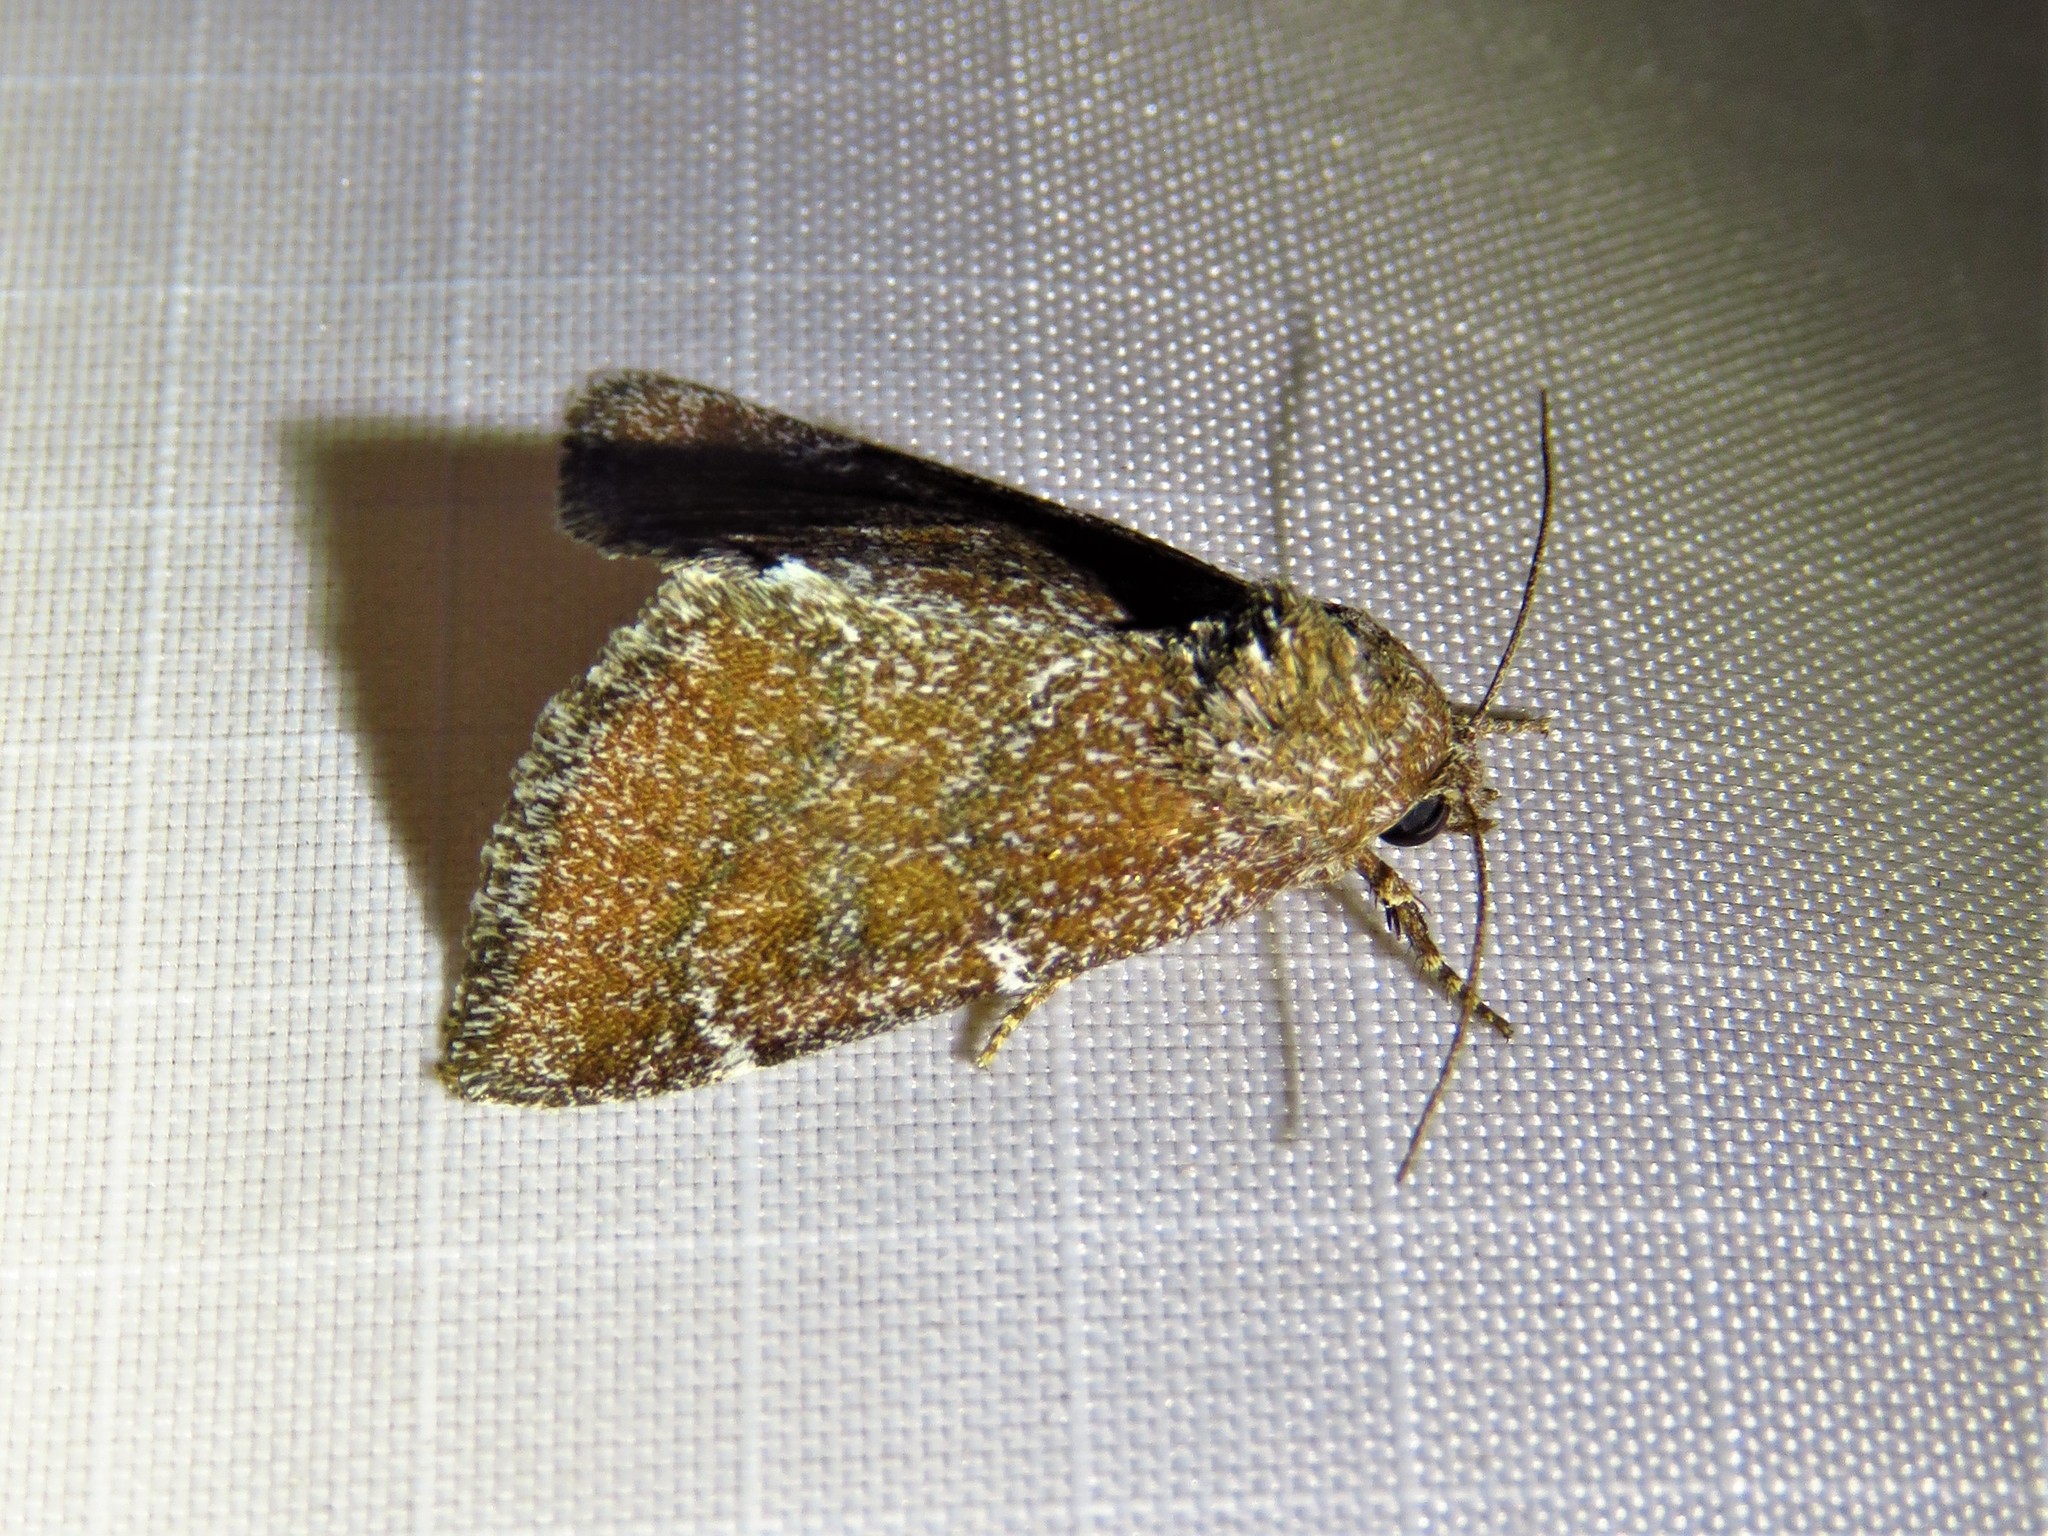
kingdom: Animalia
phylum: Arthropoda
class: Insecta
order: Lepidoptera
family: Noctuidae
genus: Schinia
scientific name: Schinia saturata
